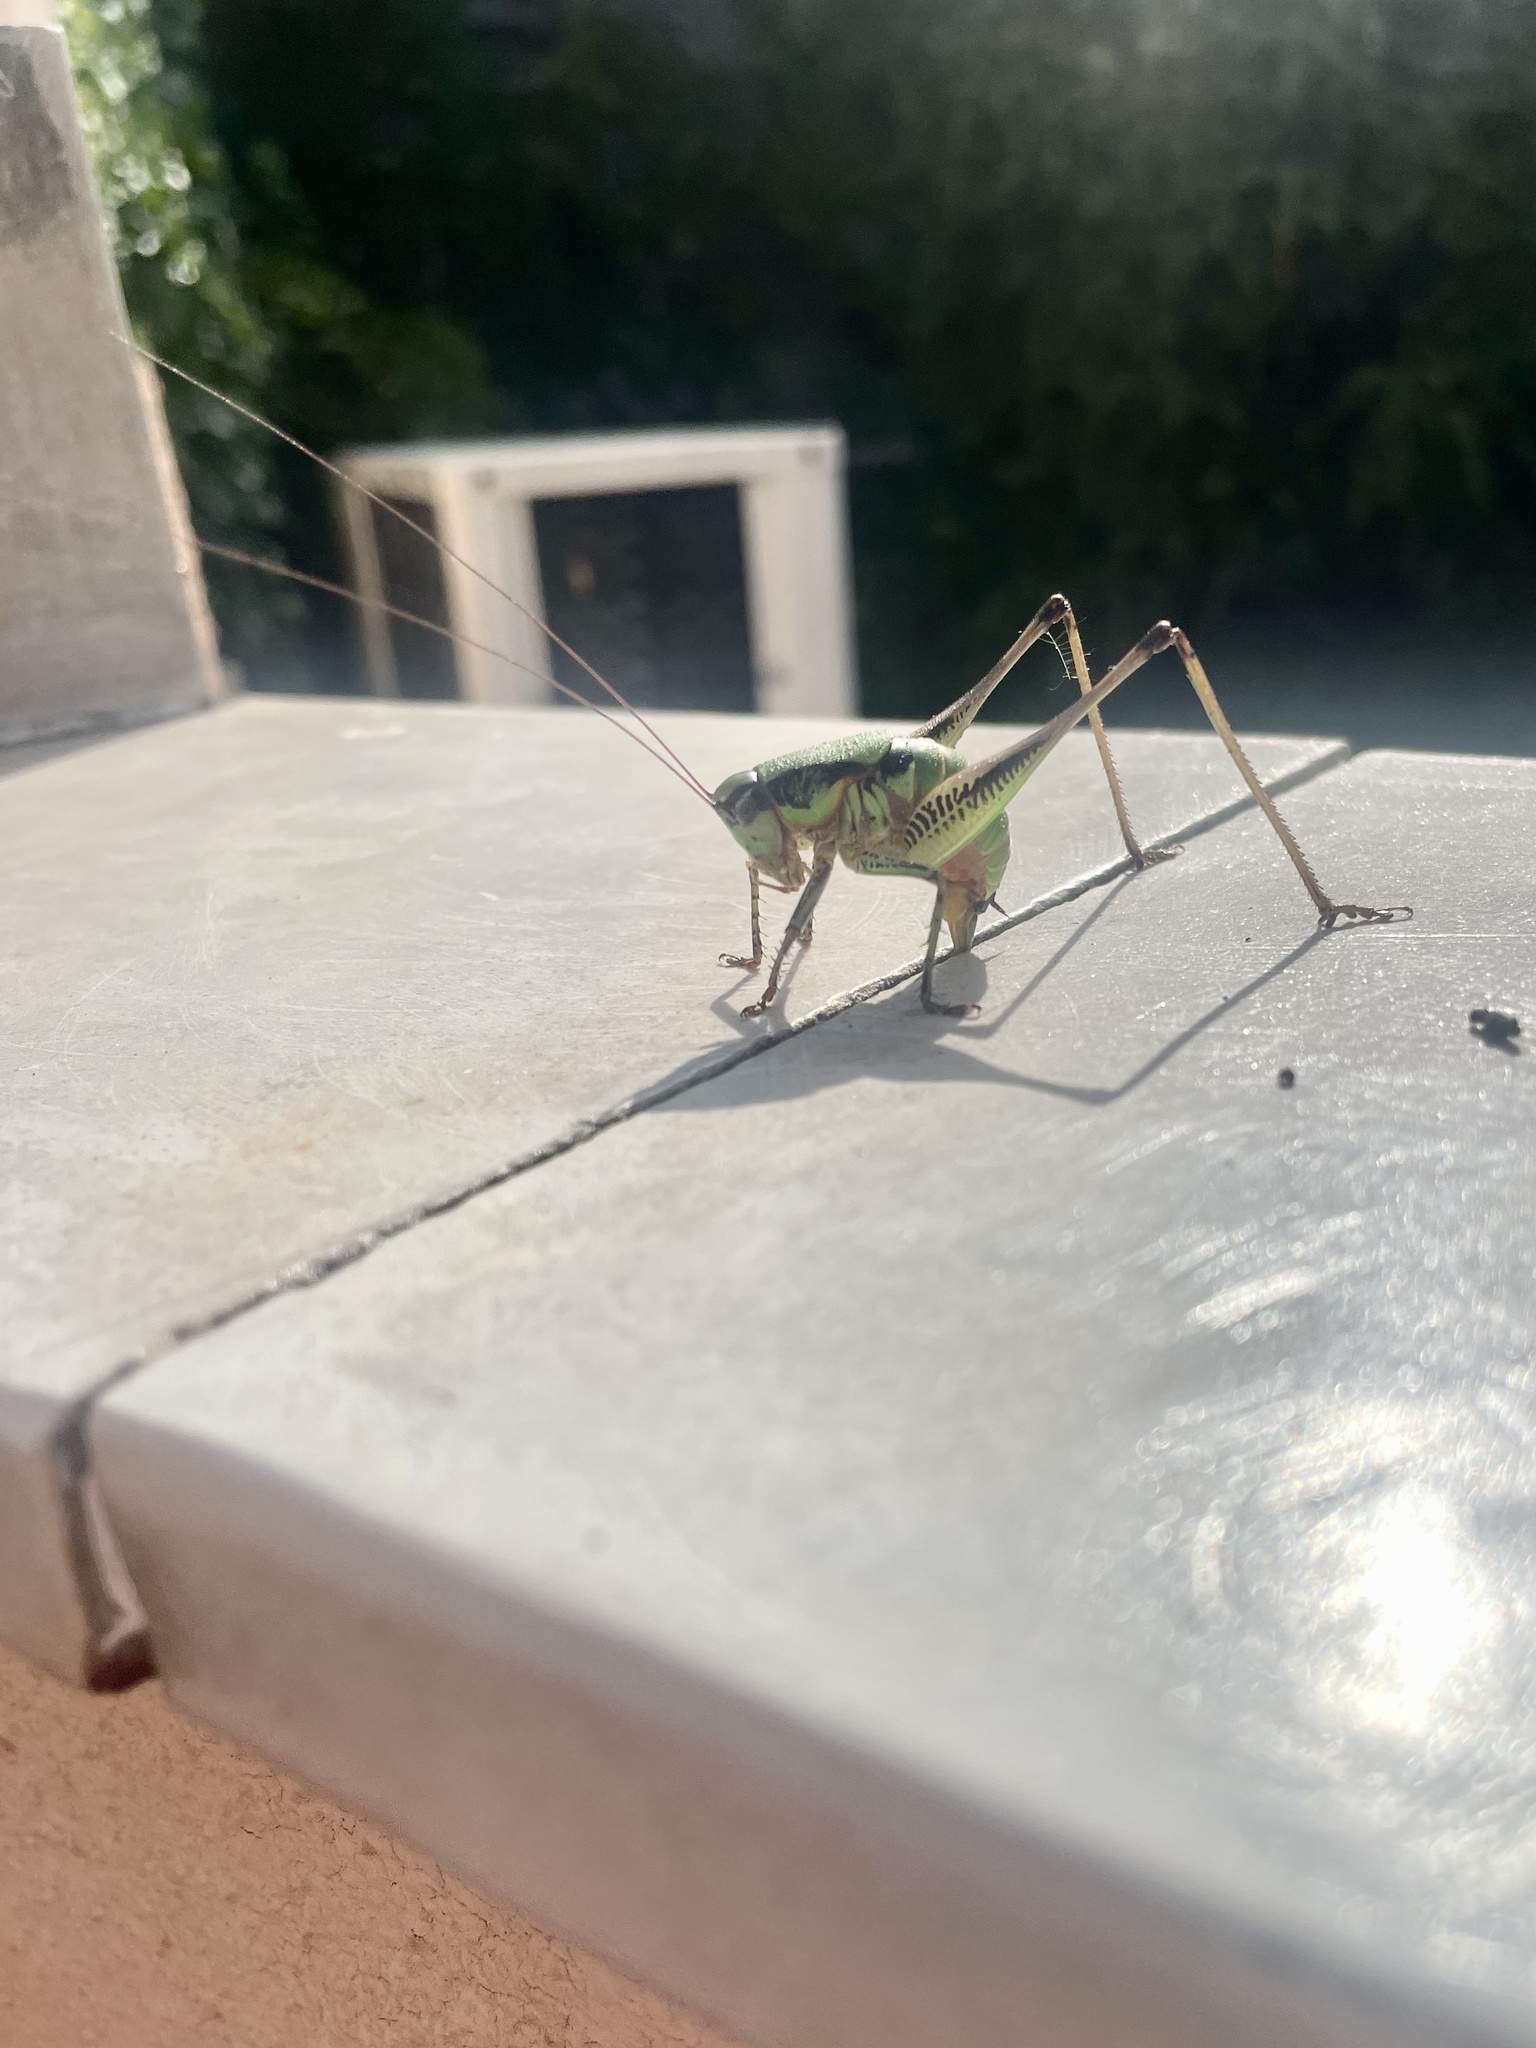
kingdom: Animalia
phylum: Arthropoda
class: Insecta
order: Orthoptera
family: Tettigoniidae
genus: Eupholidoptera
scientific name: Eupholidoptera schmidti
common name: Schmidt's marbled bush-cricket
